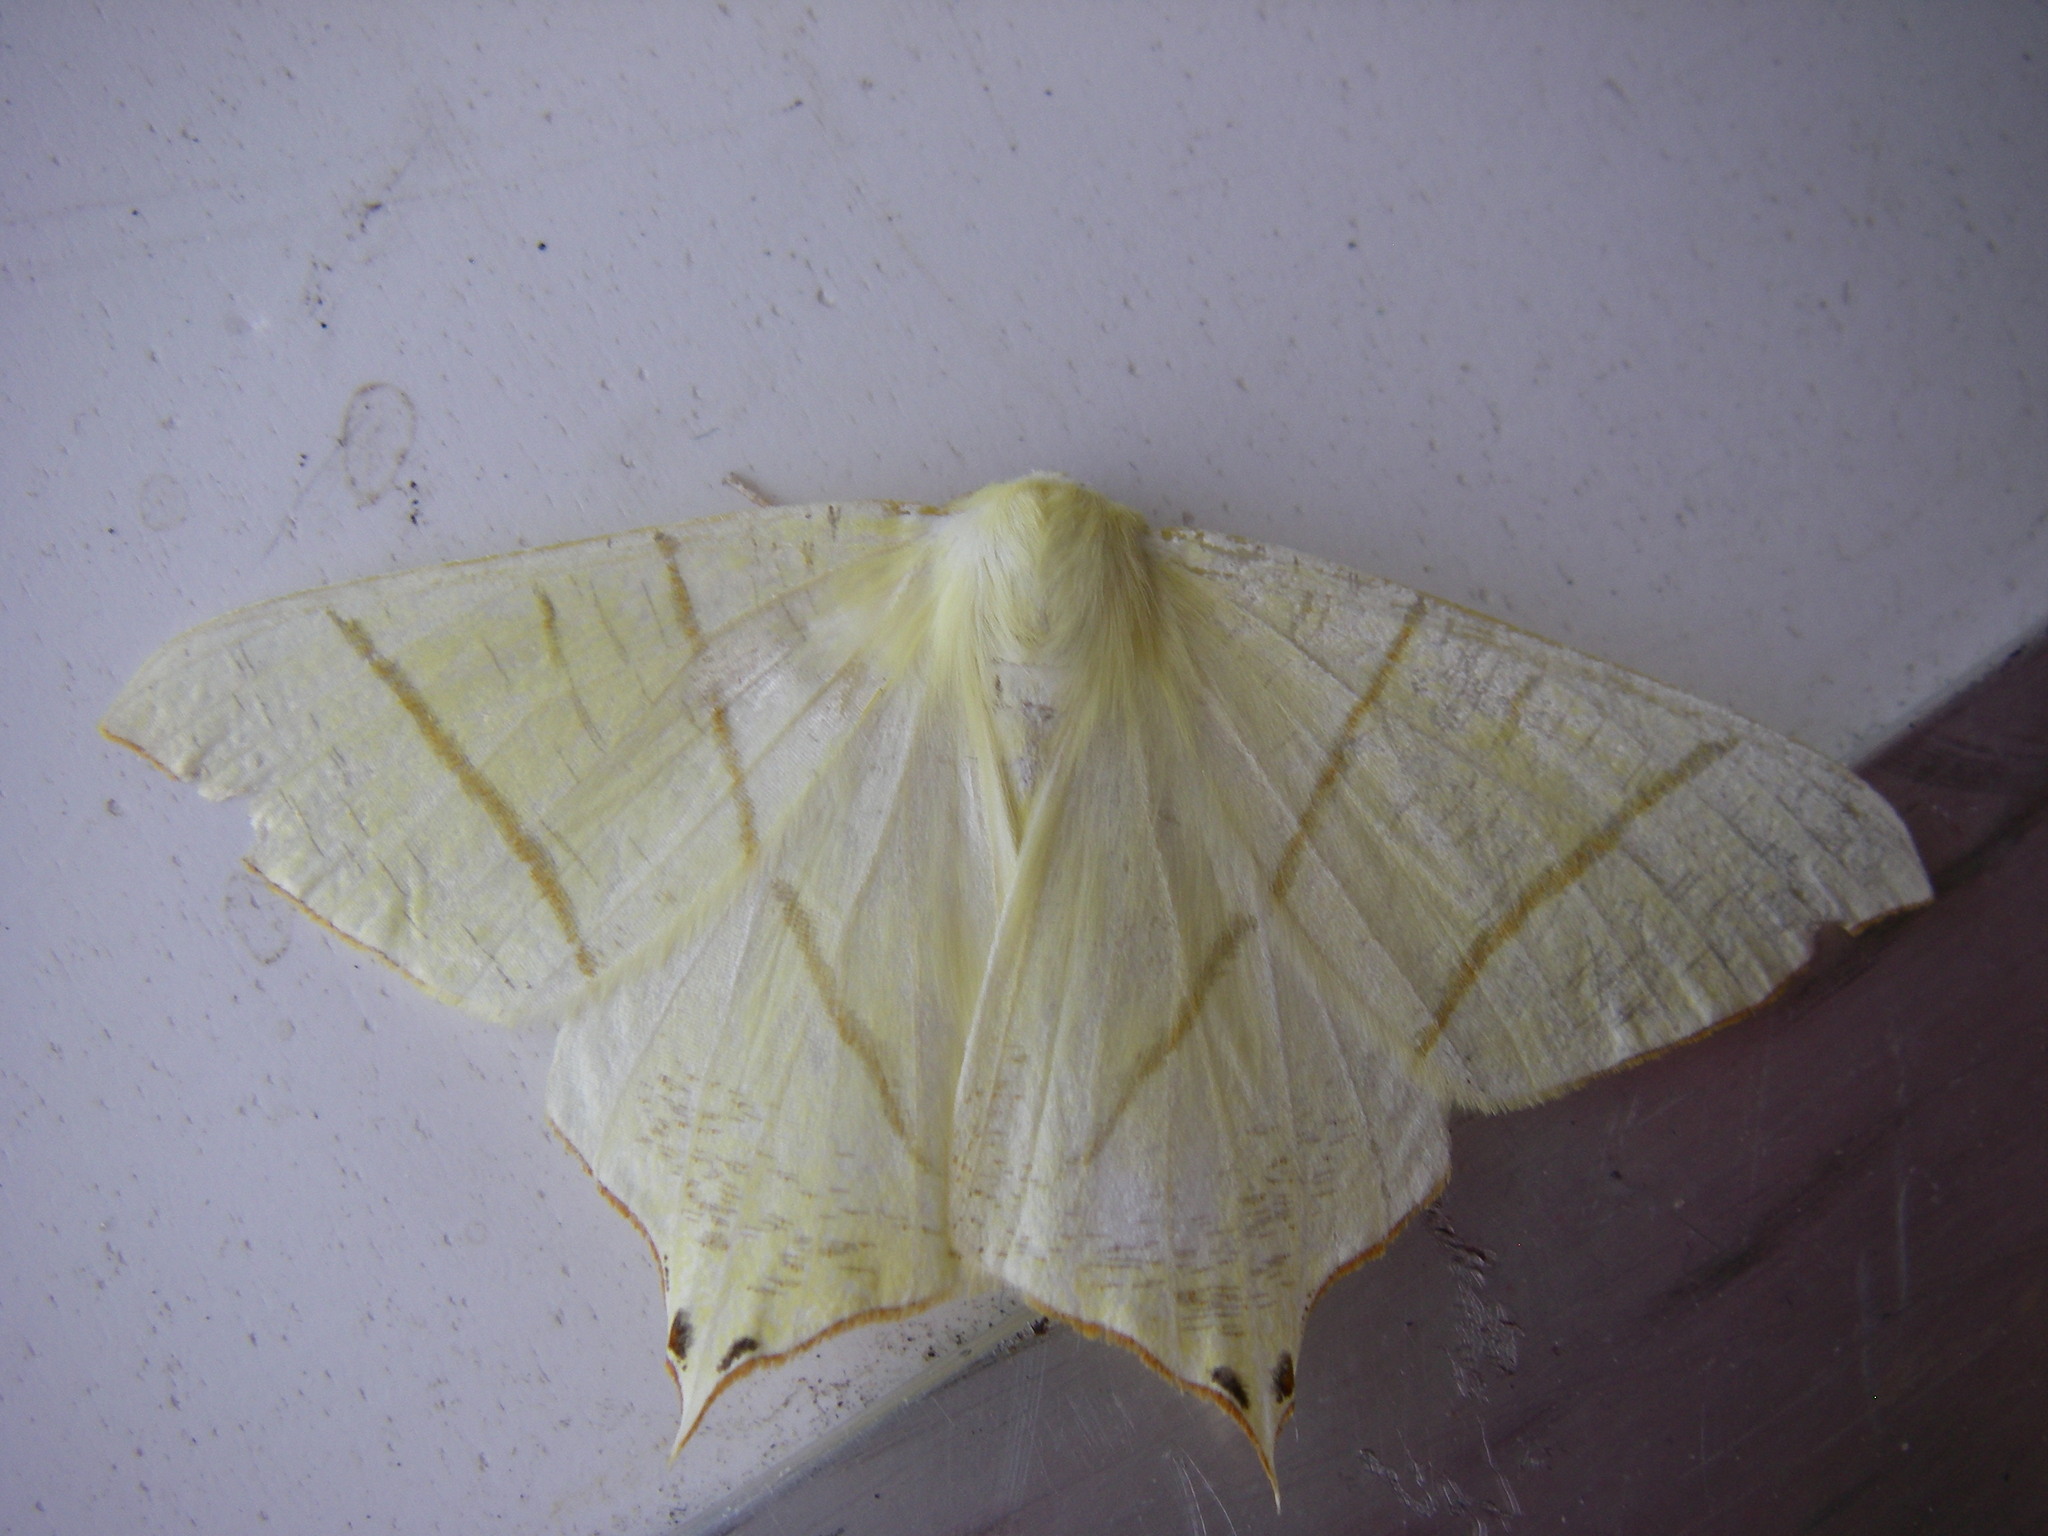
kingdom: Animalia
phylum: Arthropoda
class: Insecta
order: Lepidoptera
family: Geometridae
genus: Ourapteryx
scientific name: Ourapteryx sambucaria
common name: Swallow-tailed moth
